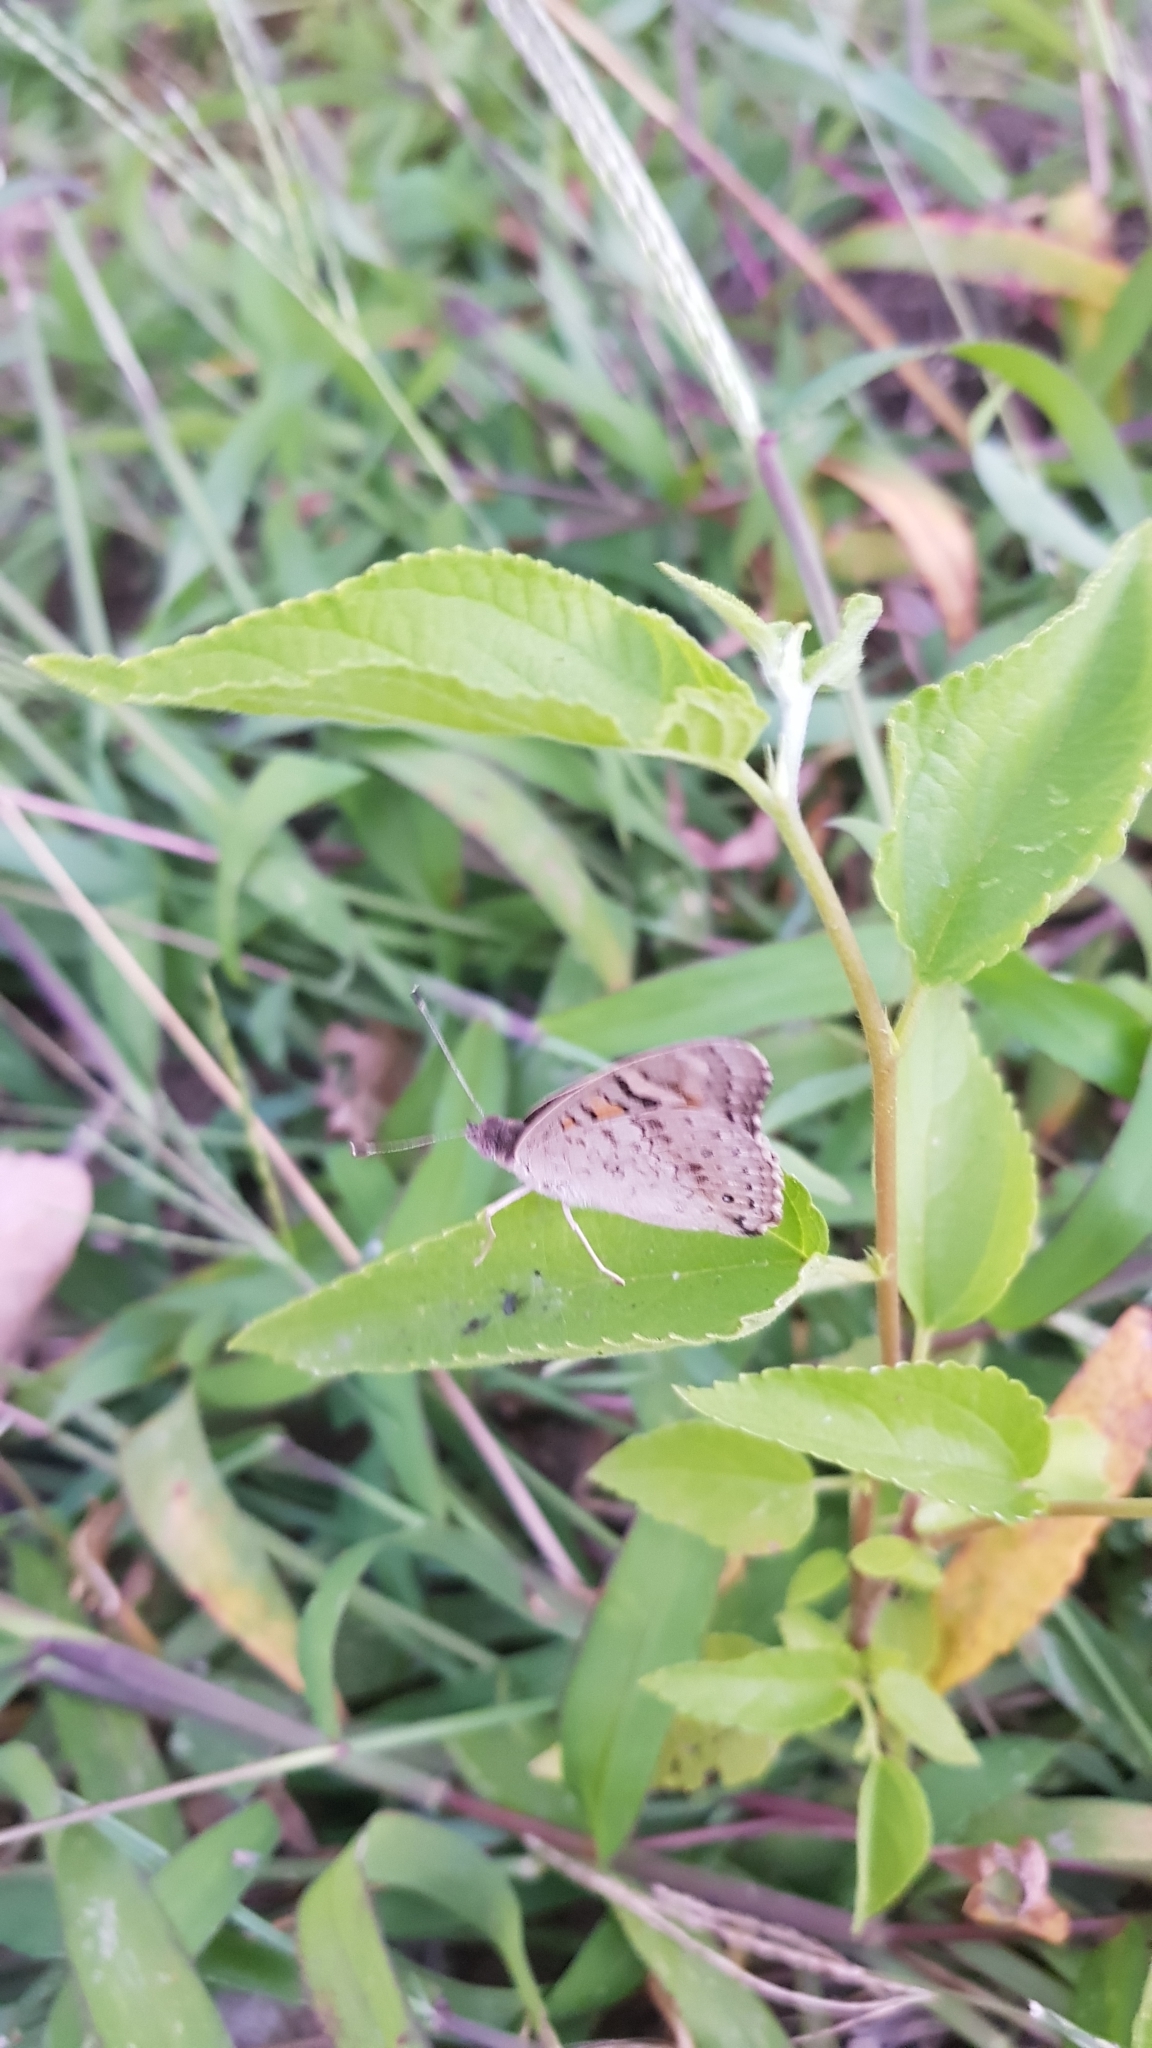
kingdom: Animalia
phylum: Arthropoda
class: Insecta
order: Lepidoptera
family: Nymphalidae
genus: Junonia
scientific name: Junonia villida
